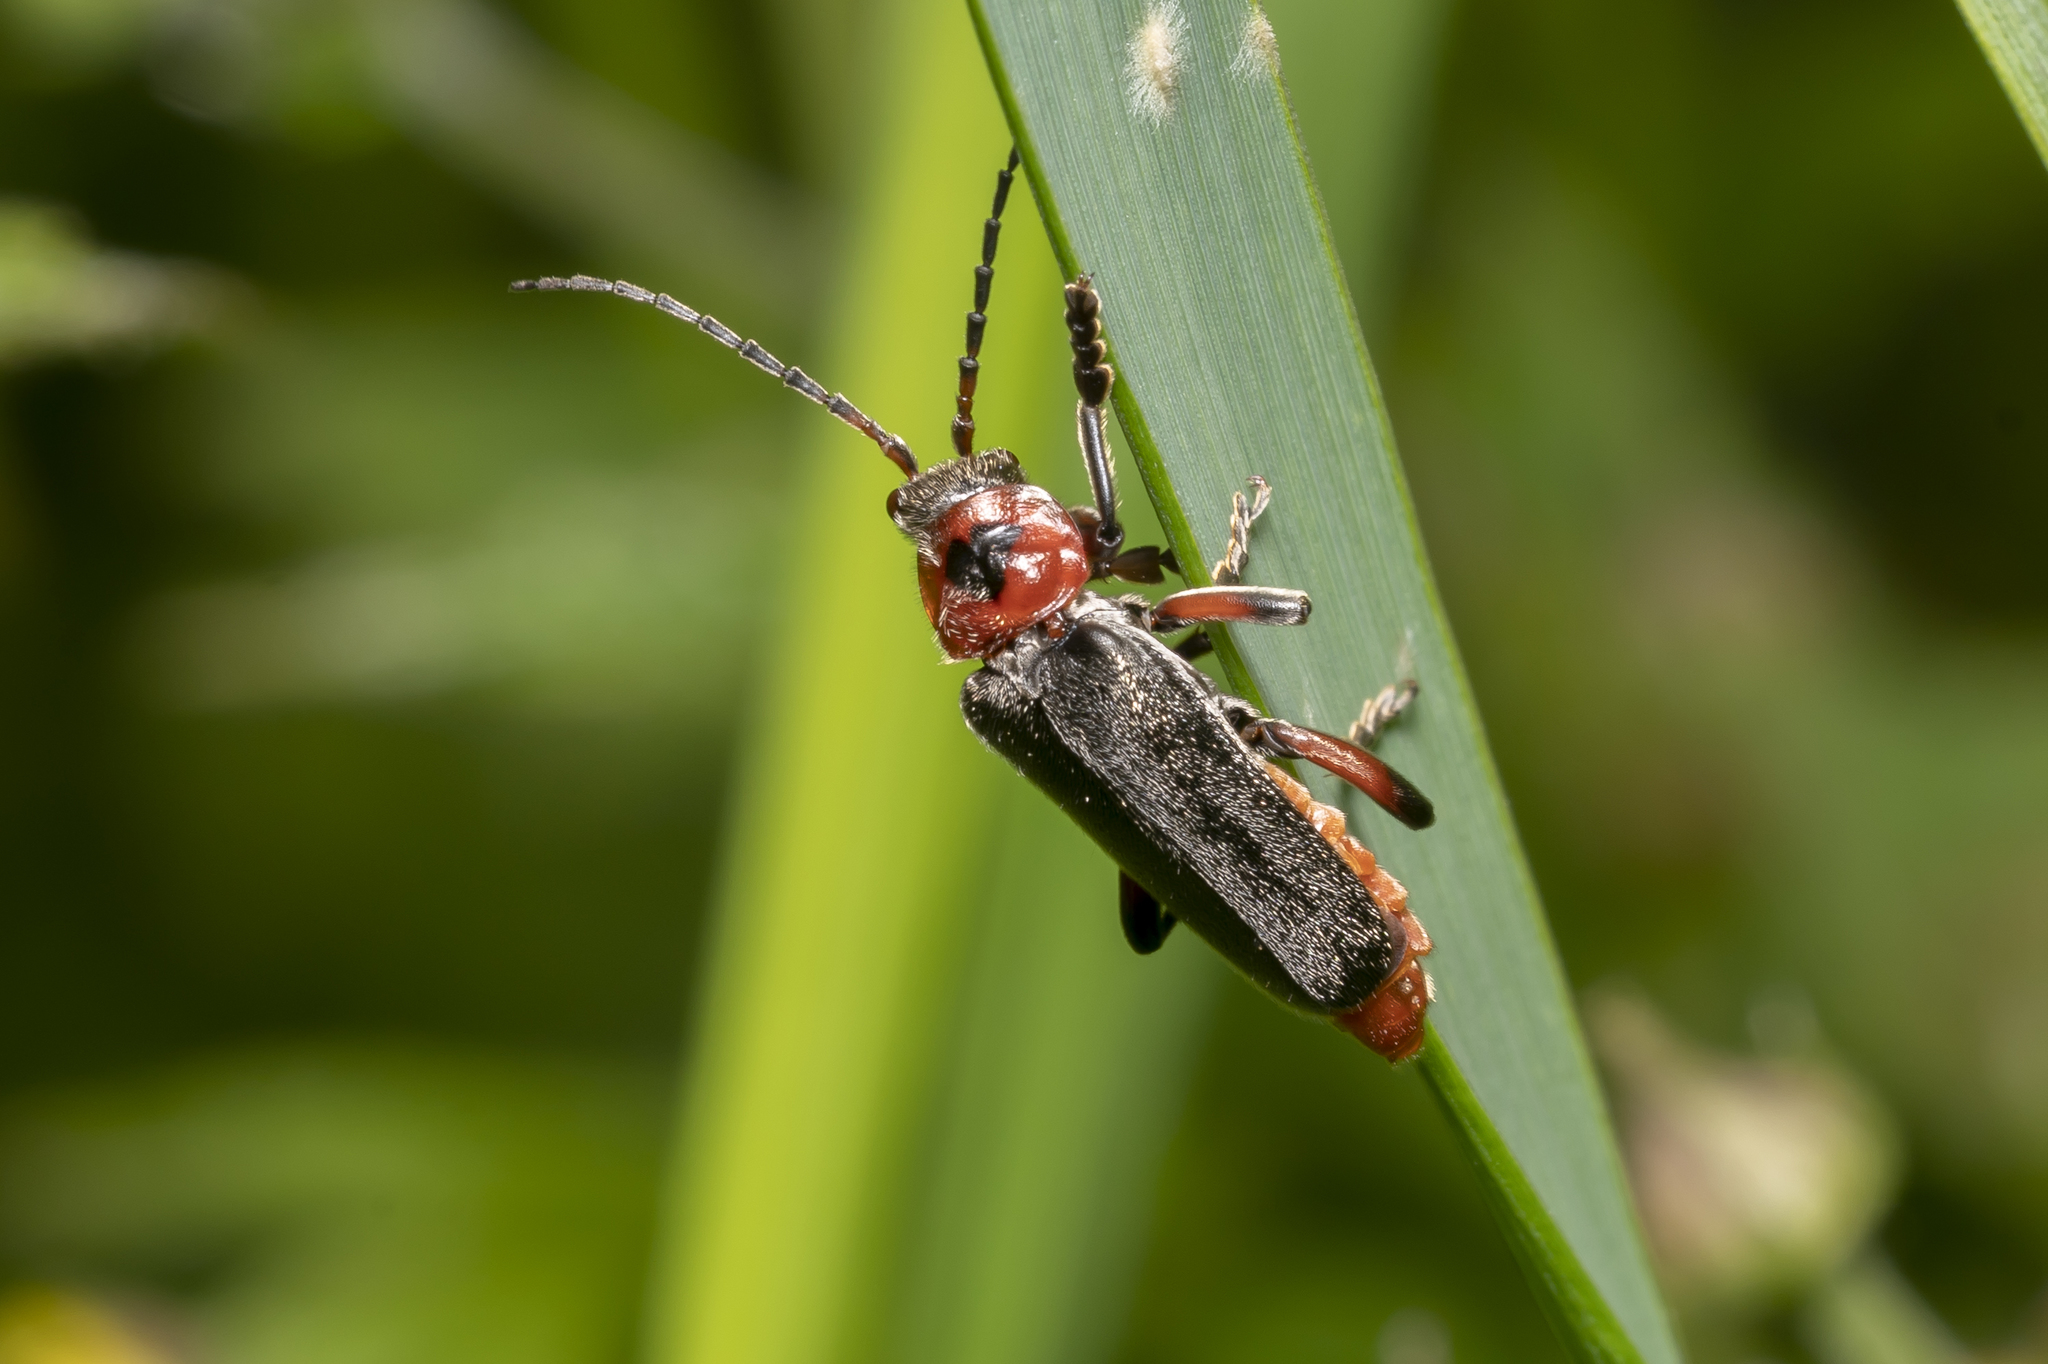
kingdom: Animalia
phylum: Arthropoda
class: Insecta
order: Coleoptera
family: Cantharidae
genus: Cantharis
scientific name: Cantharis rustica
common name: Soldier beetle
